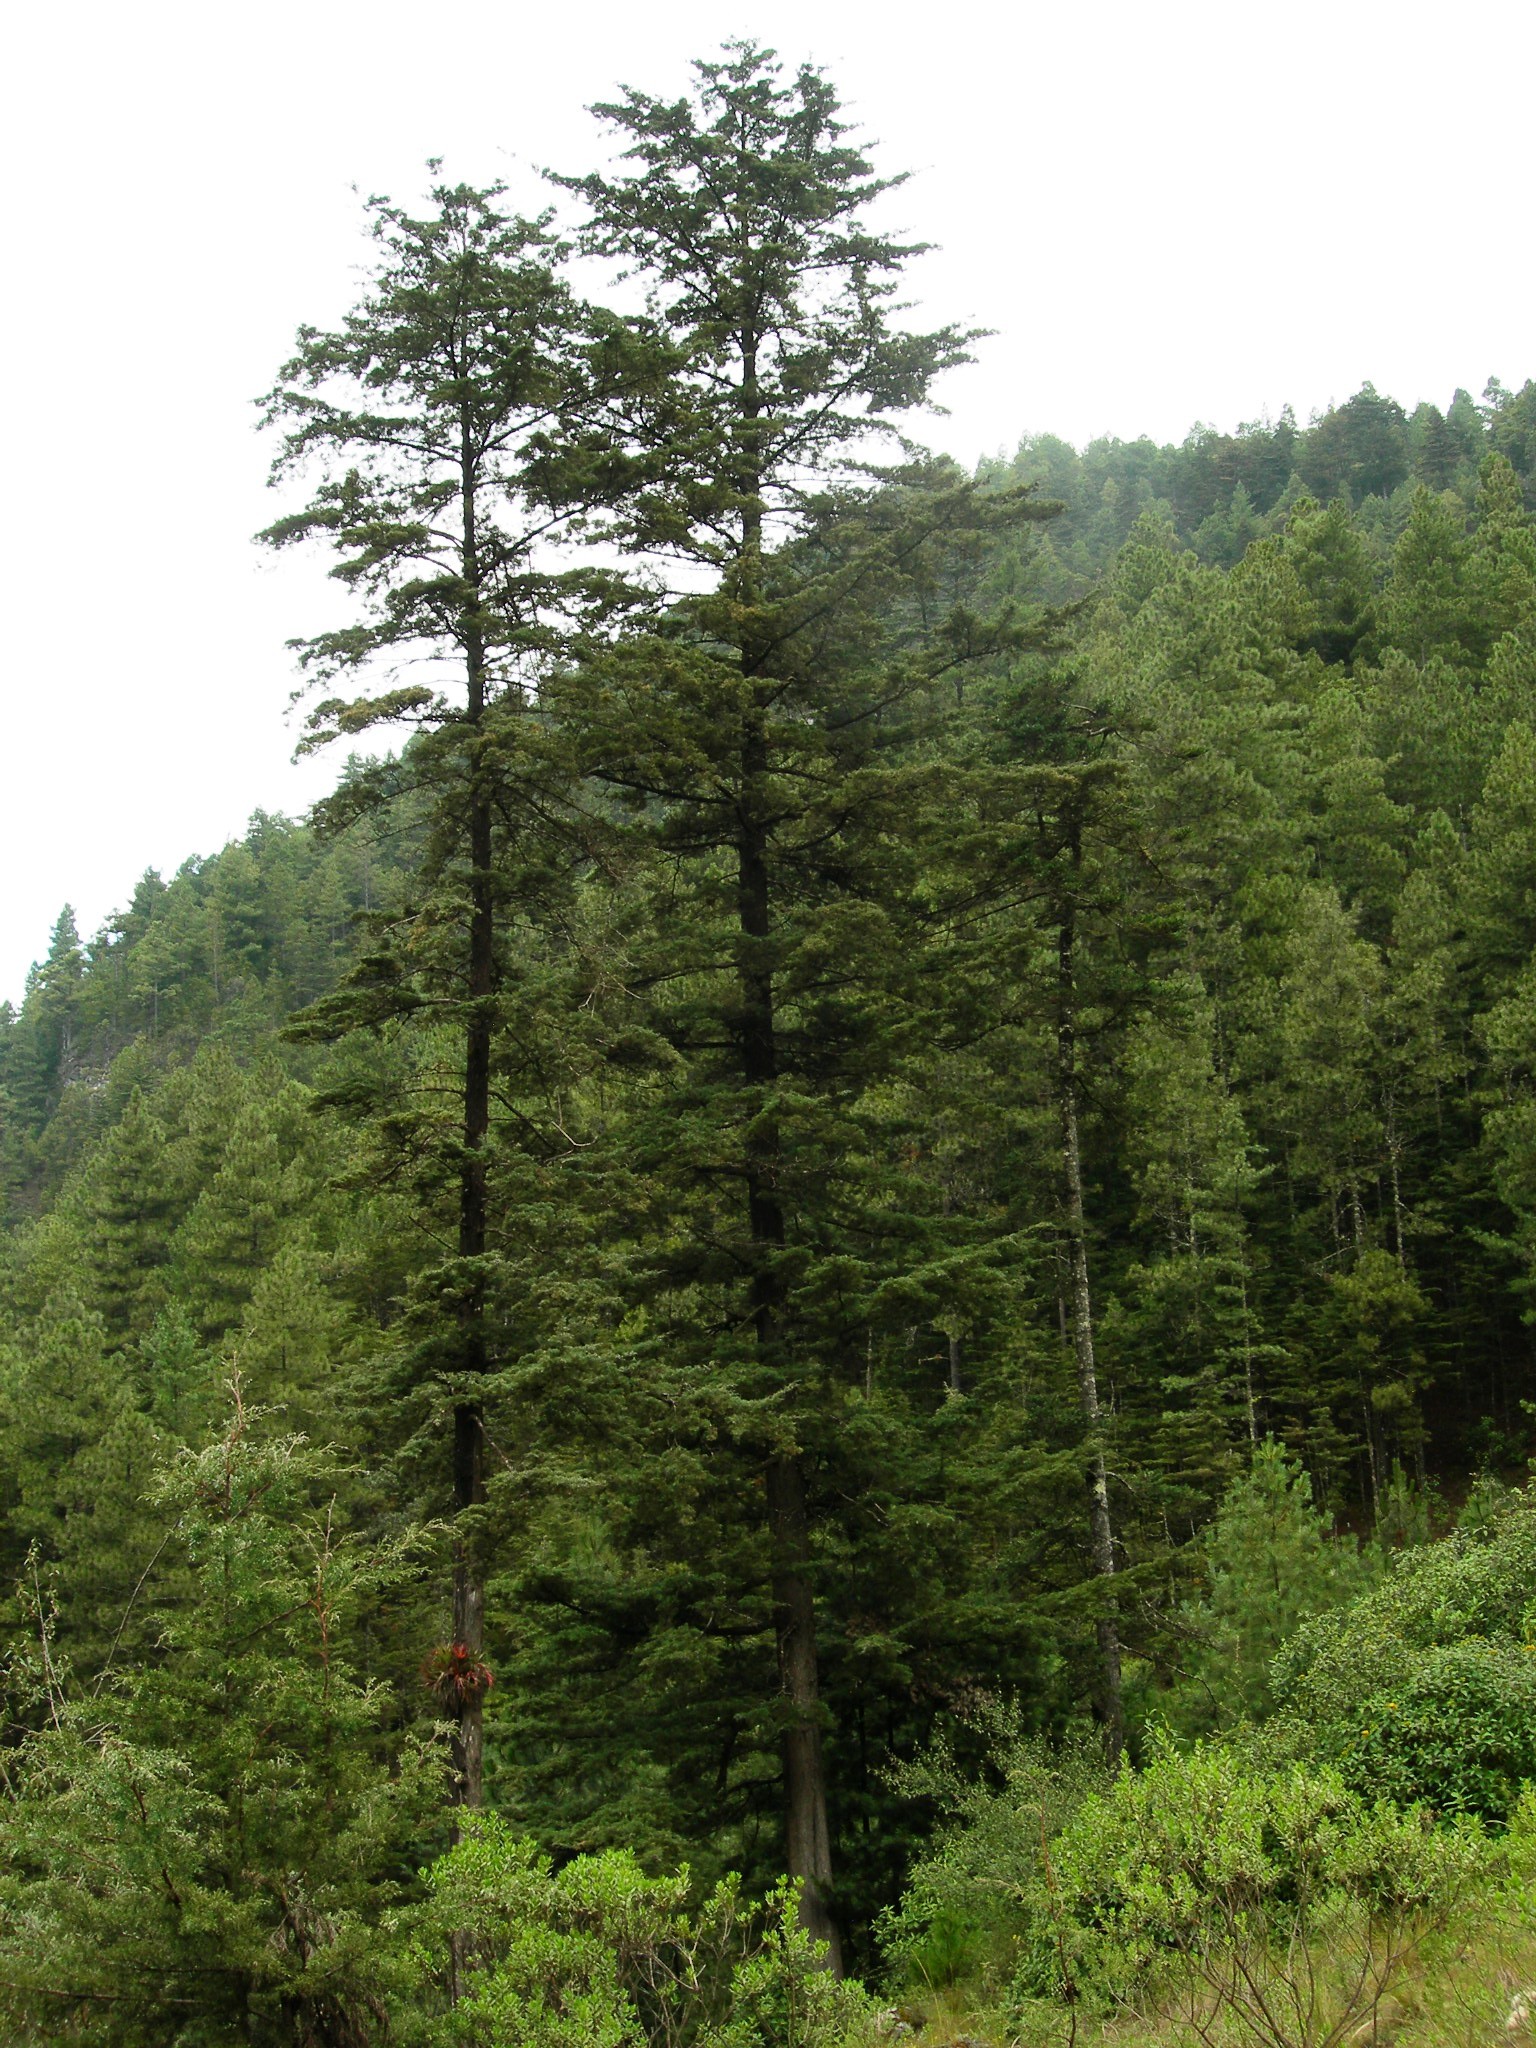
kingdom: Plantae
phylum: Tracheophyta
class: Pinopsida
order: Pinales
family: Pinaceae
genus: Abies
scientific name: Abies guatemalensis
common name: Guatemalan fir
